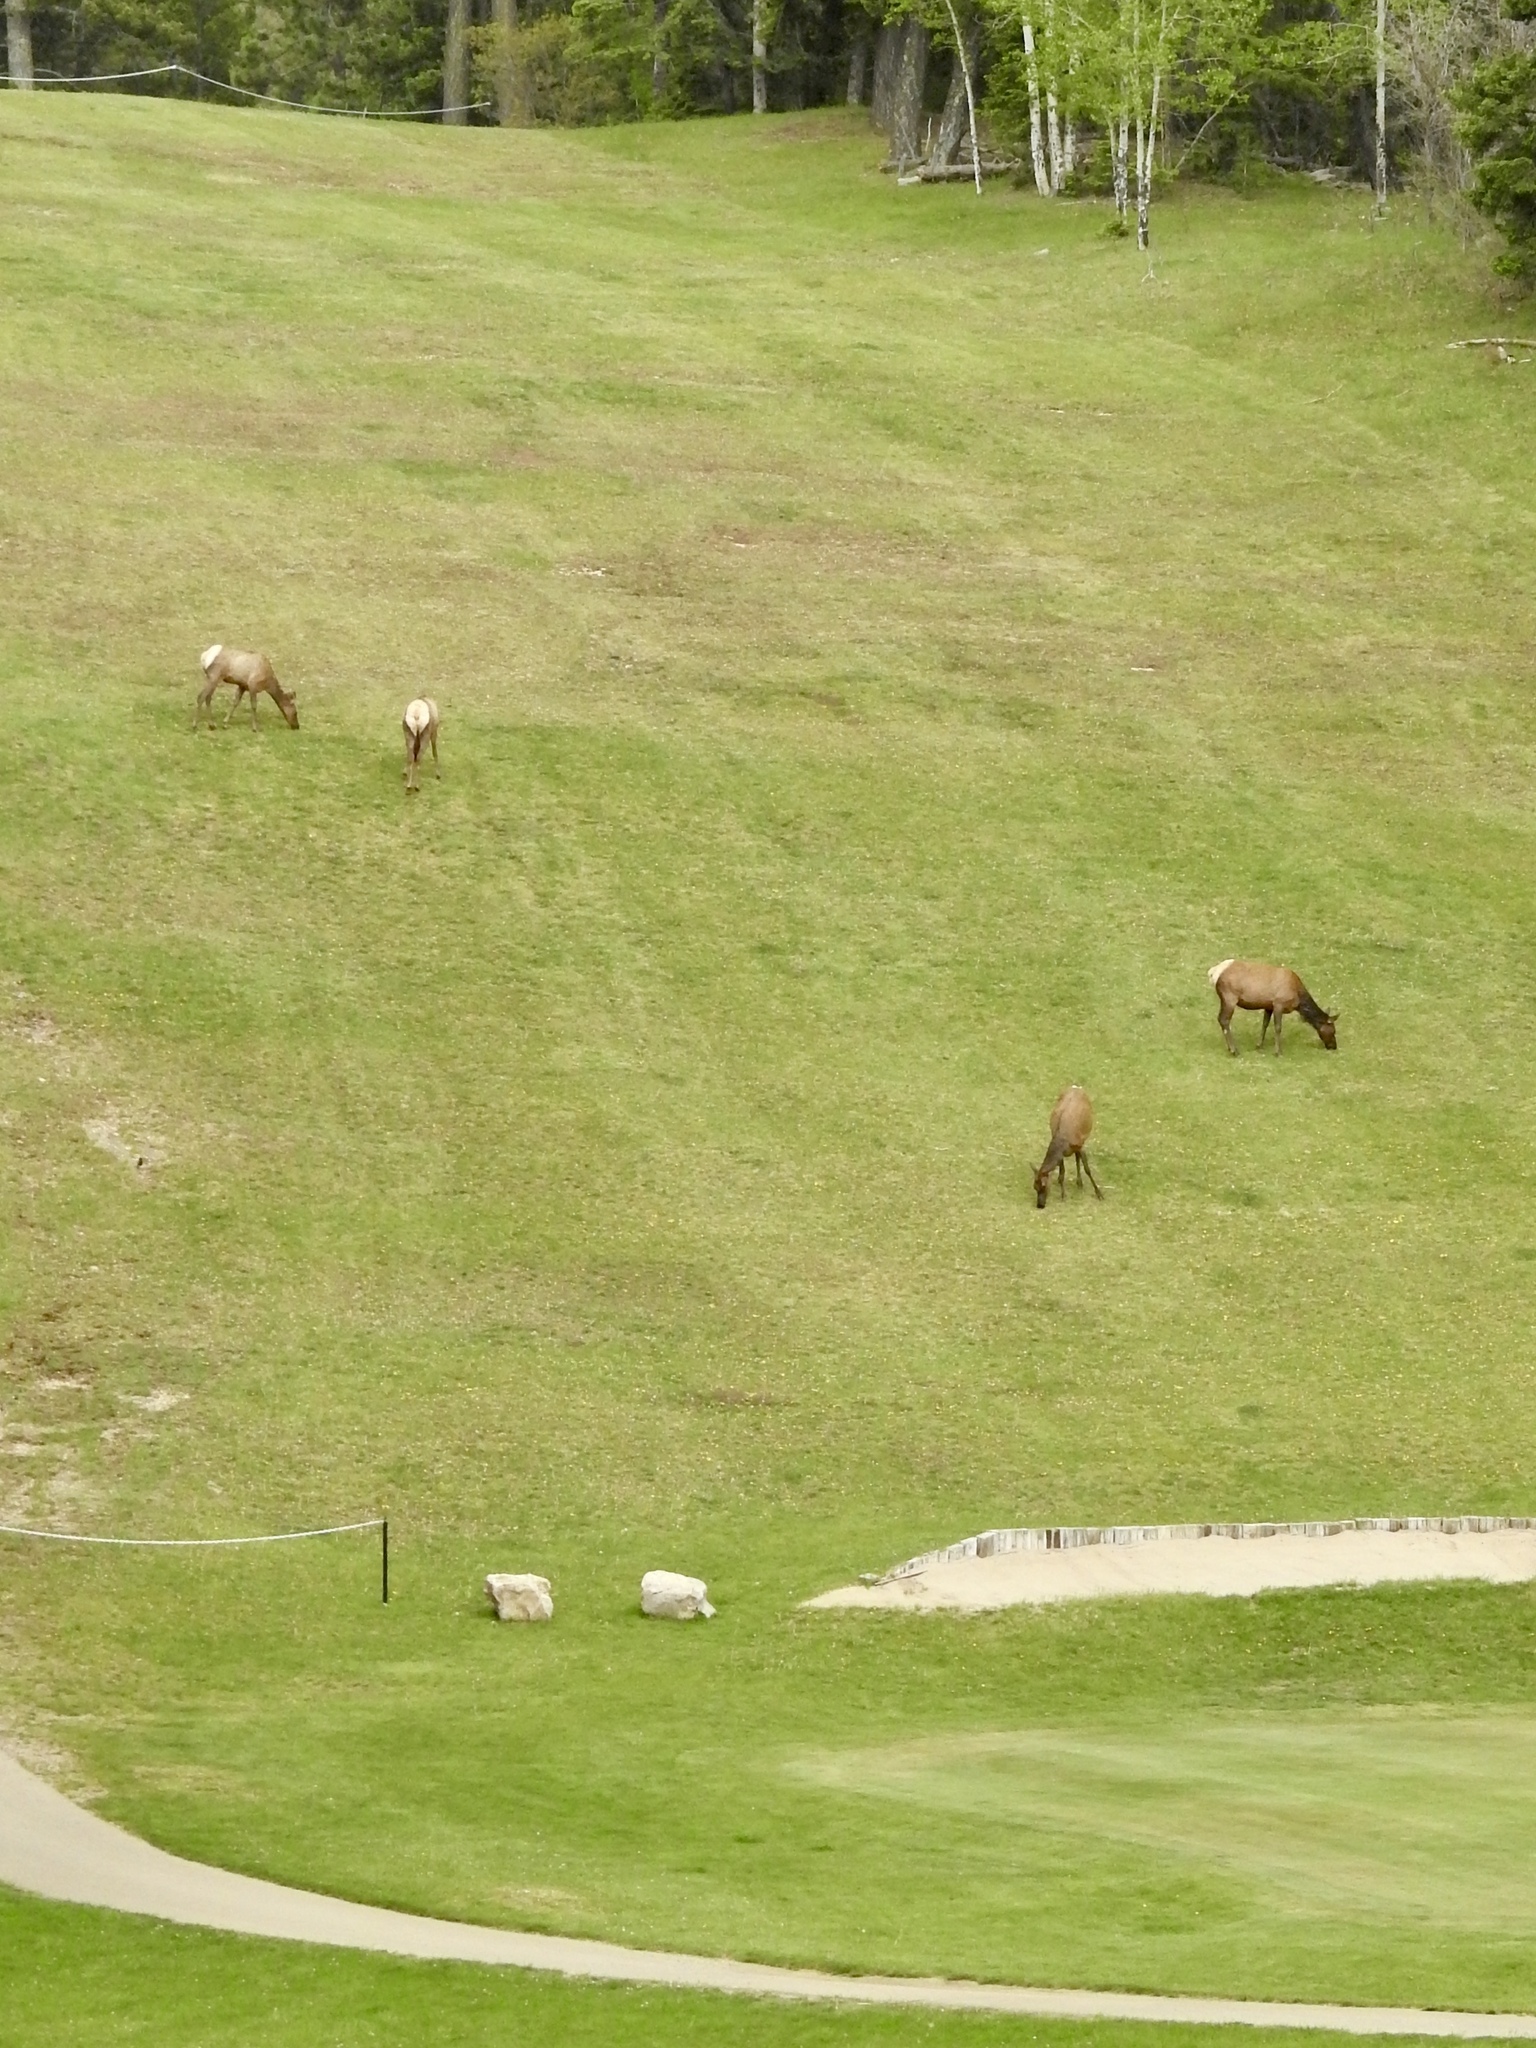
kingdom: Animalia
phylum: Chordata
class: Mammalia
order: Artiodactyla
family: Cervidae
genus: Cervus
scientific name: Cervus elaphus
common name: Red deer
